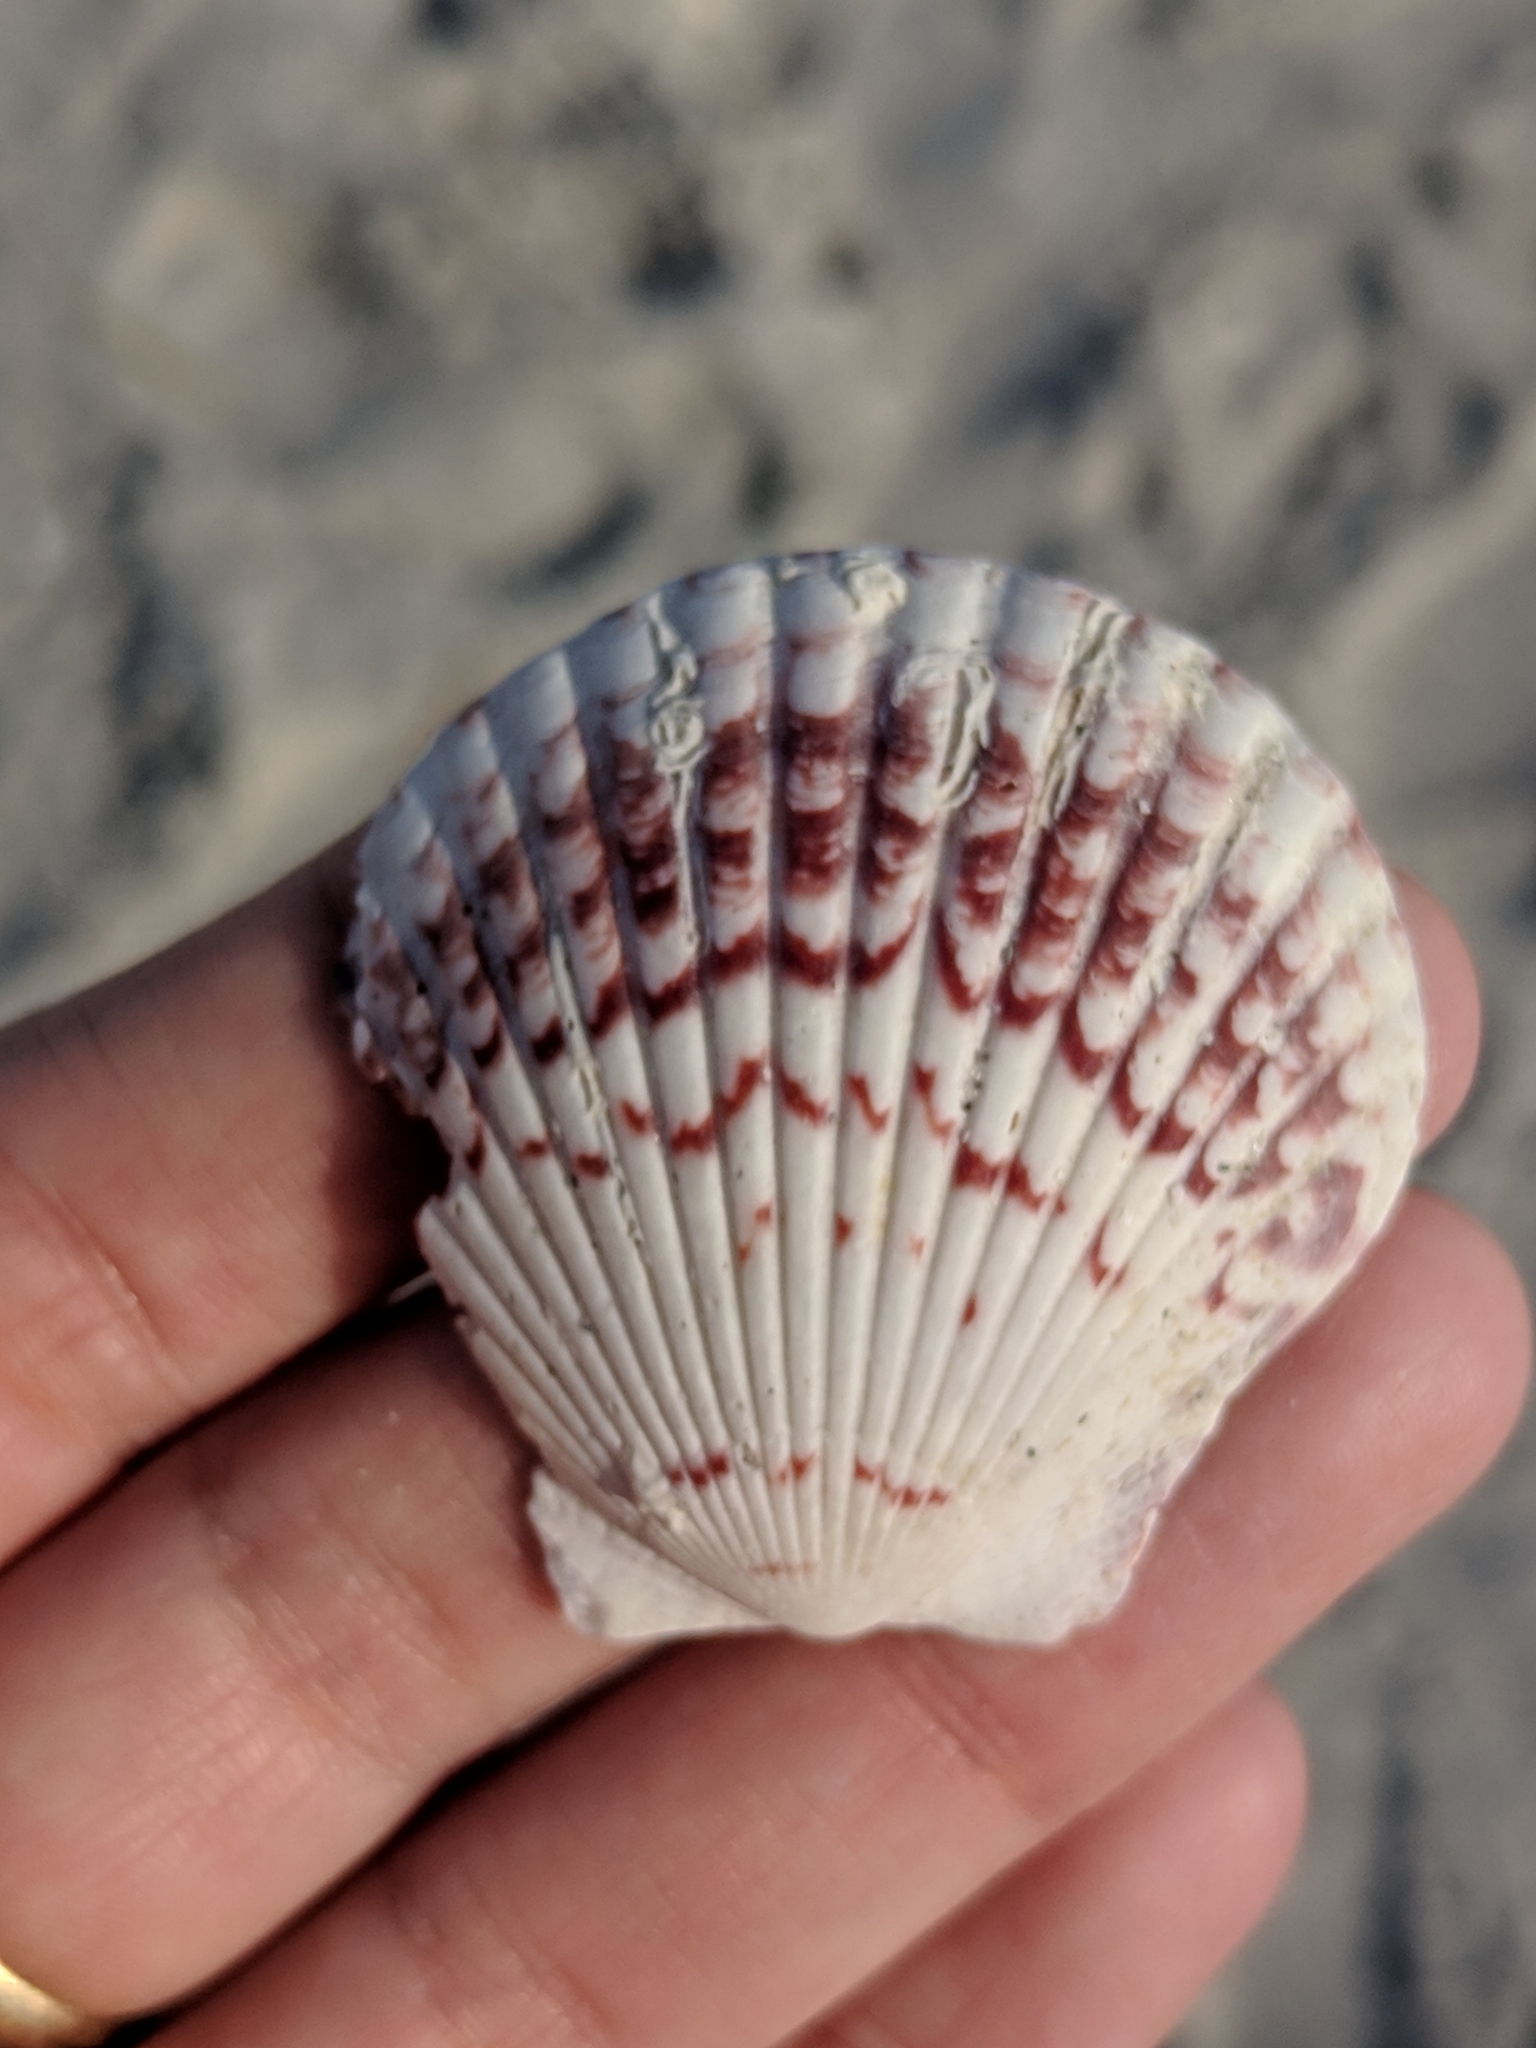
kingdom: Animalia
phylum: Mollusca
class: Bivalvia
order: Pectinida
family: Pectinidae
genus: Argopecten
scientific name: Argopecten gibbus
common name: Atlantic calico scallop
